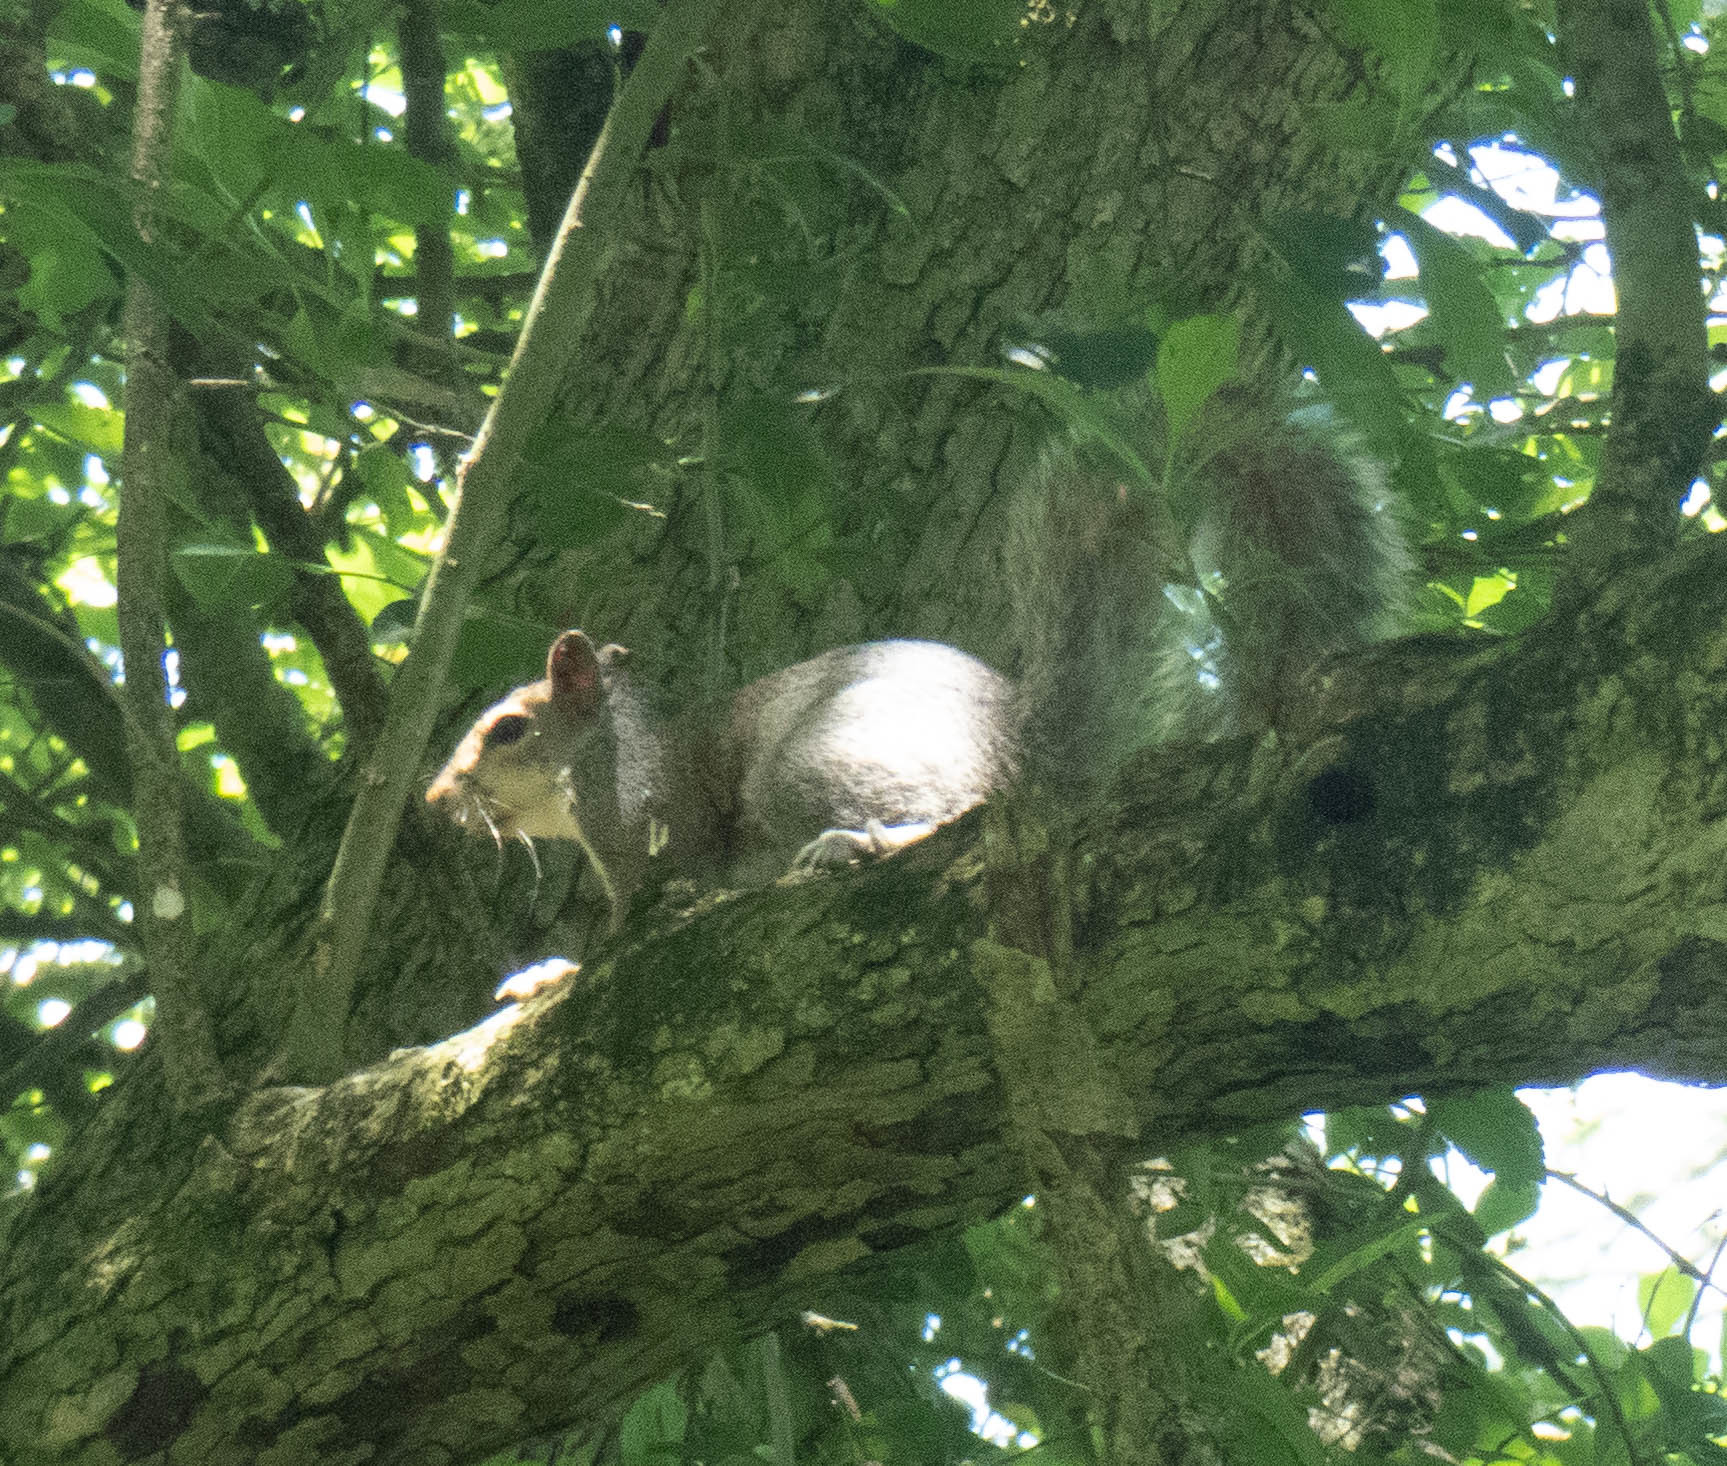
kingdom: Animalia
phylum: Chordata
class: Mammalia
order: Rodentia
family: Sciuridae
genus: Sciurus
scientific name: Sciurus carolinensis
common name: Eastern gray squirrel
